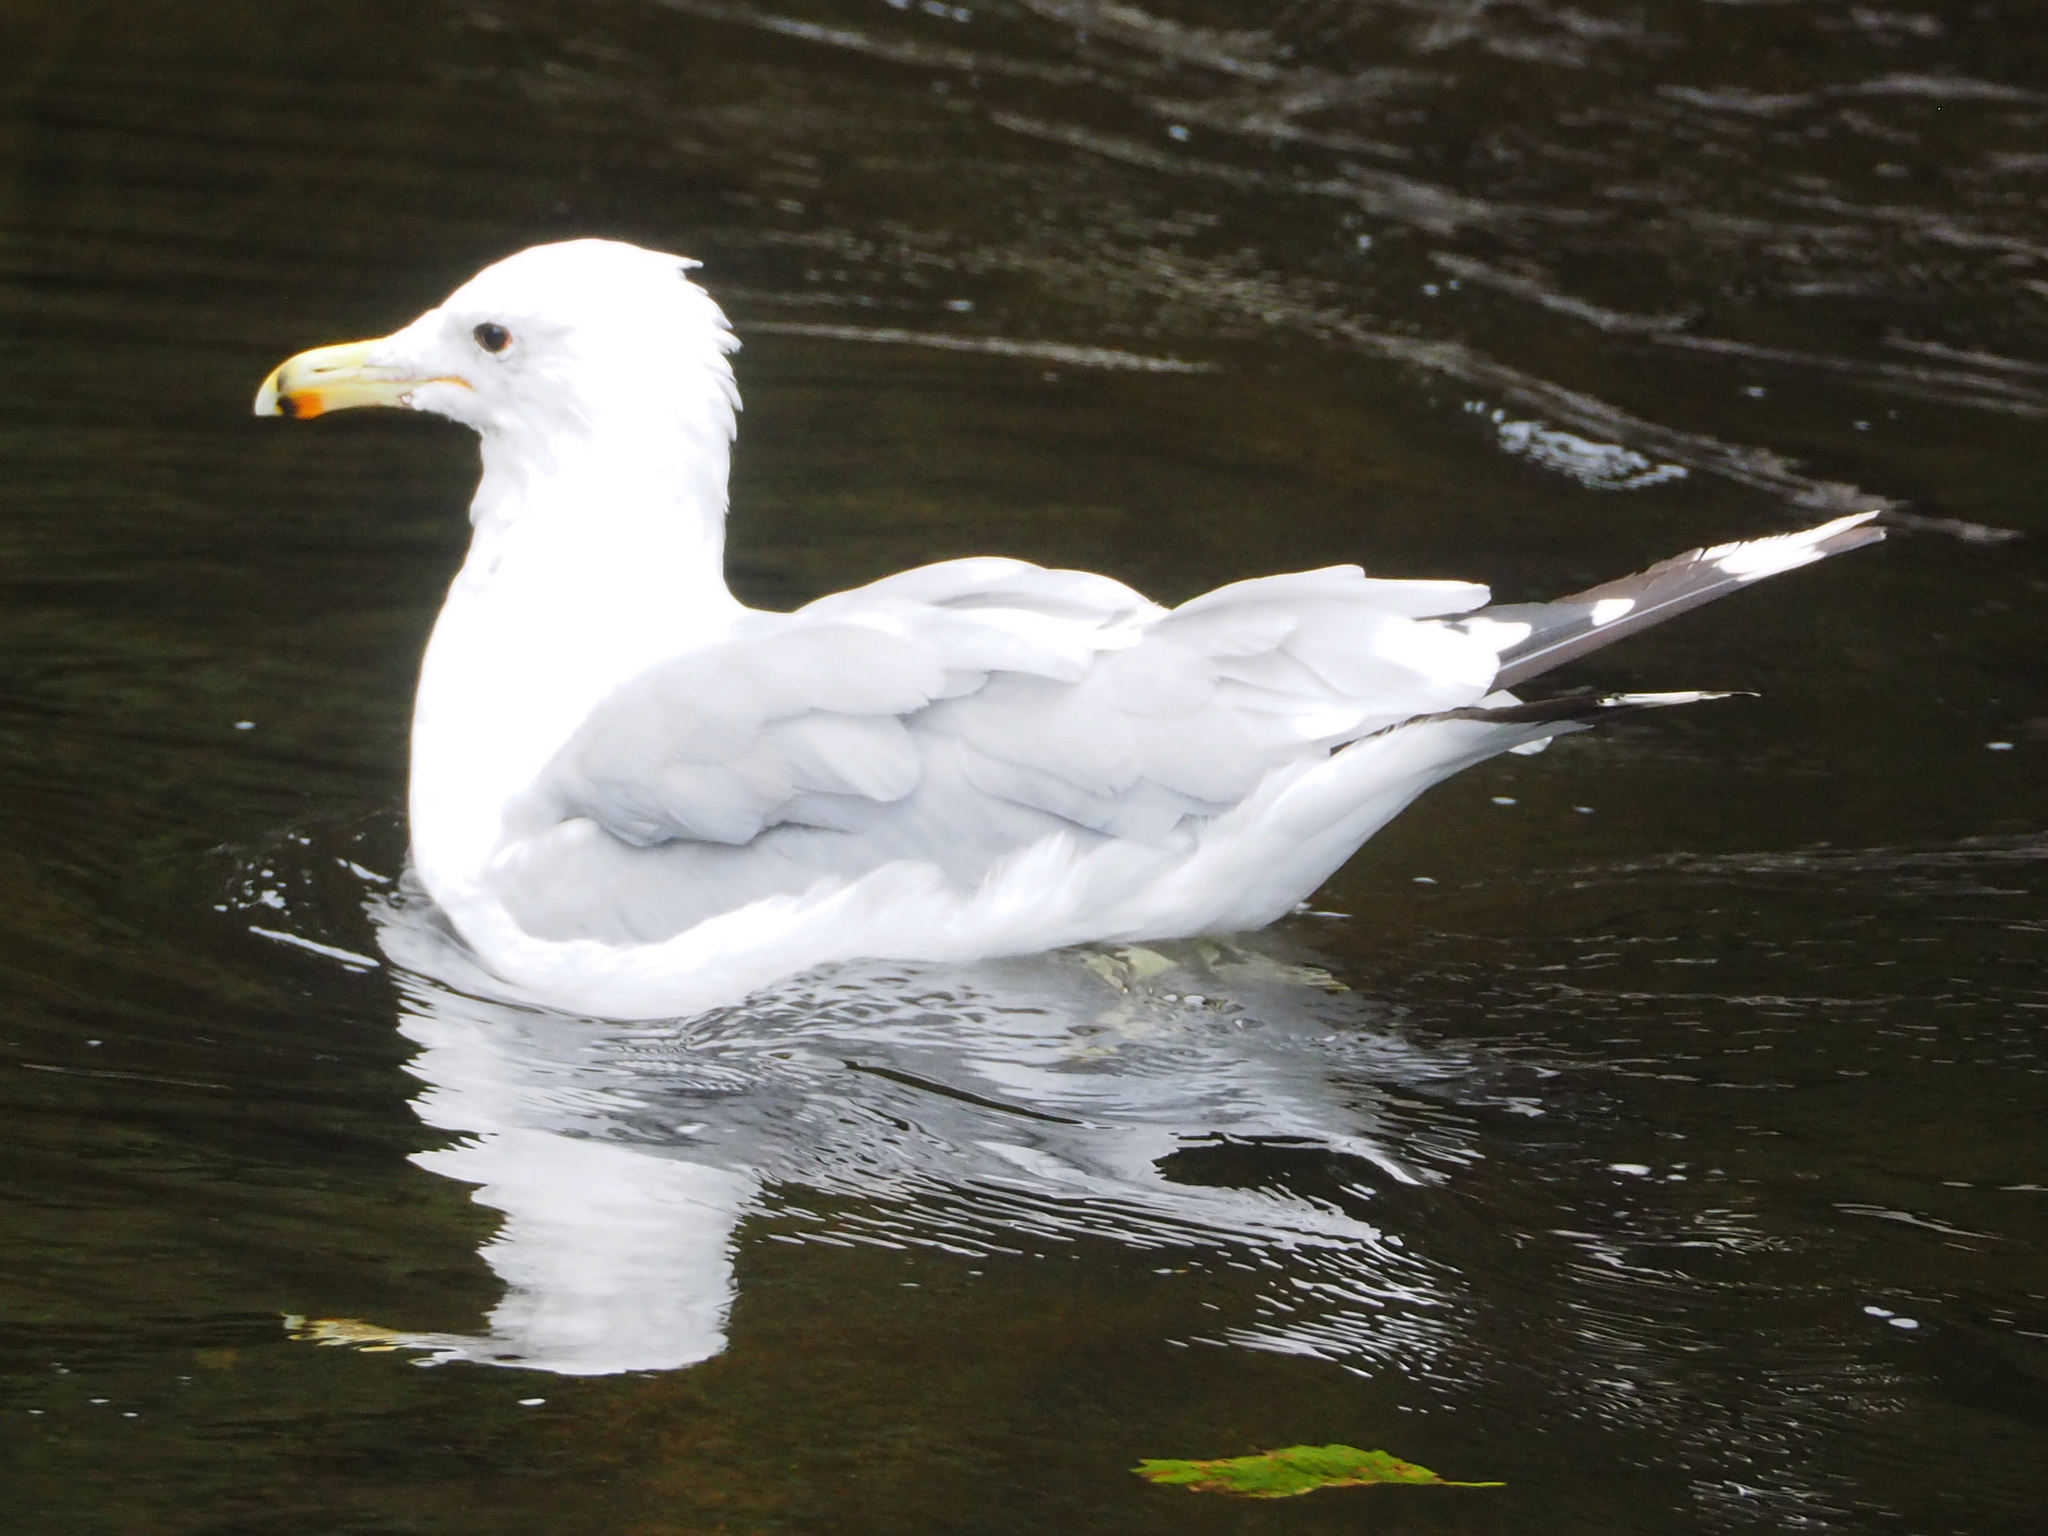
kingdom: Animalia
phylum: Chordata
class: Aves
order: Charadriiformes
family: Laridae
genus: Larus
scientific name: Larus californicus
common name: California gull
